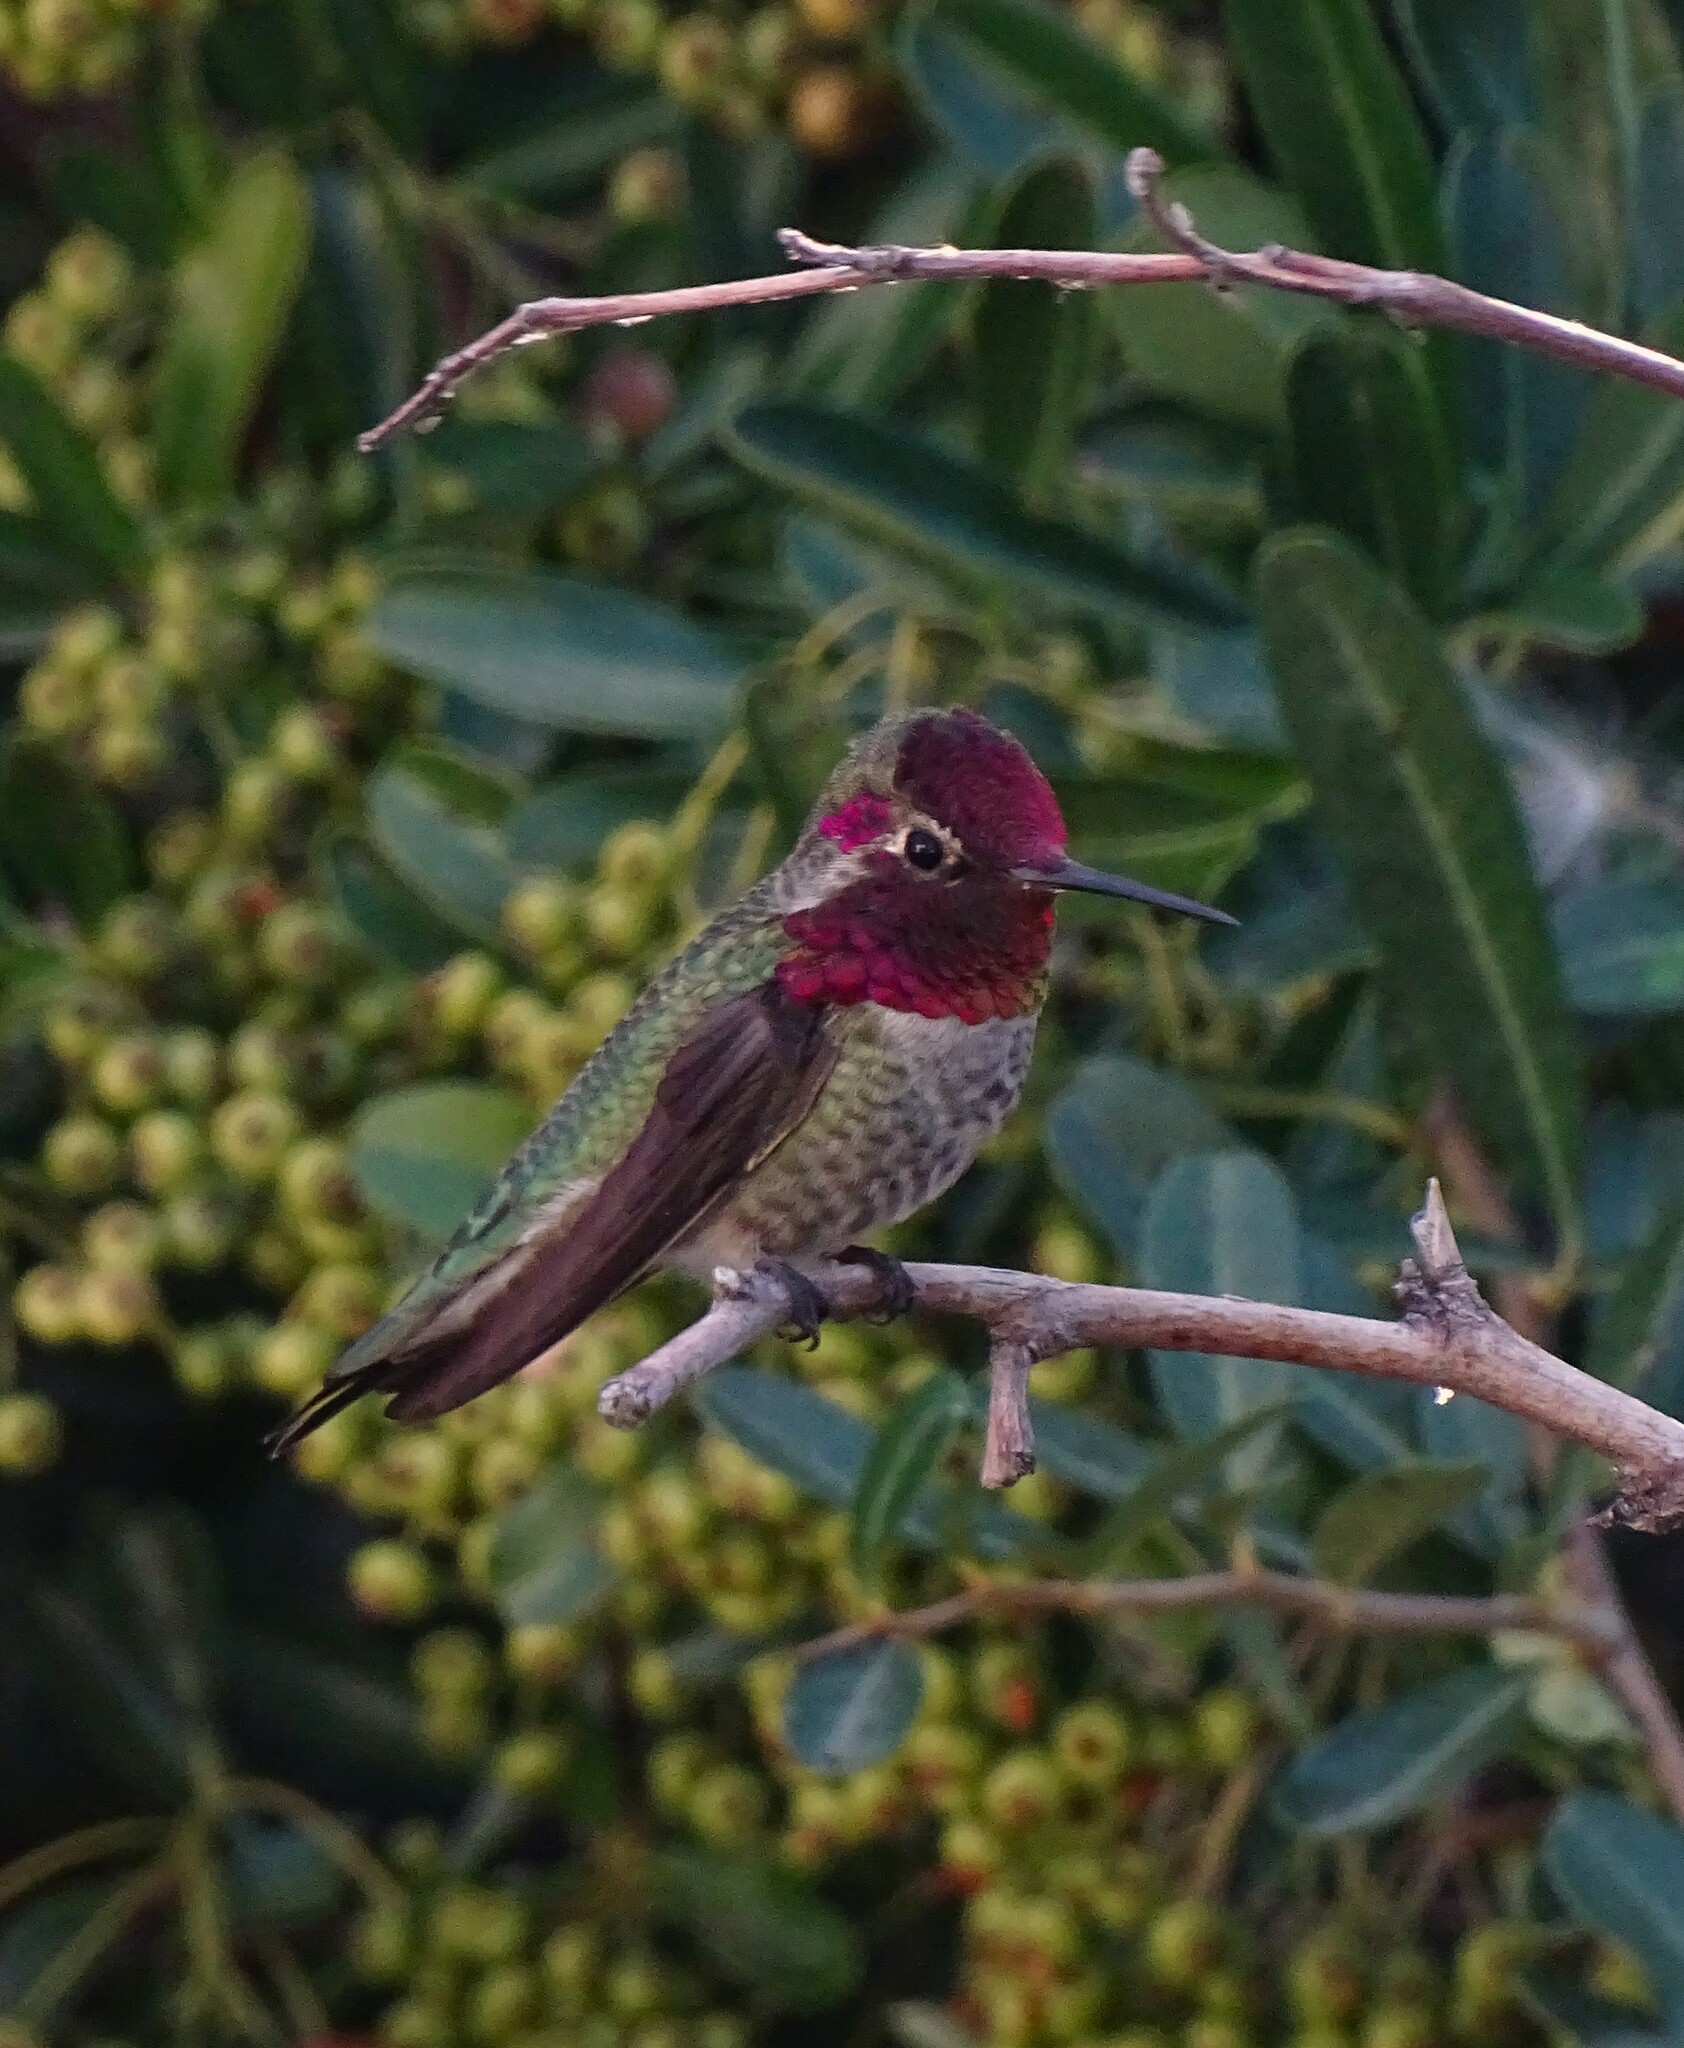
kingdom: Animalia
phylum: Chordata
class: Aves
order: Apodiformes
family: Trochilidae
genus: Calypte
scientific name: Calypte anna
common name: Anna's hummingbird
